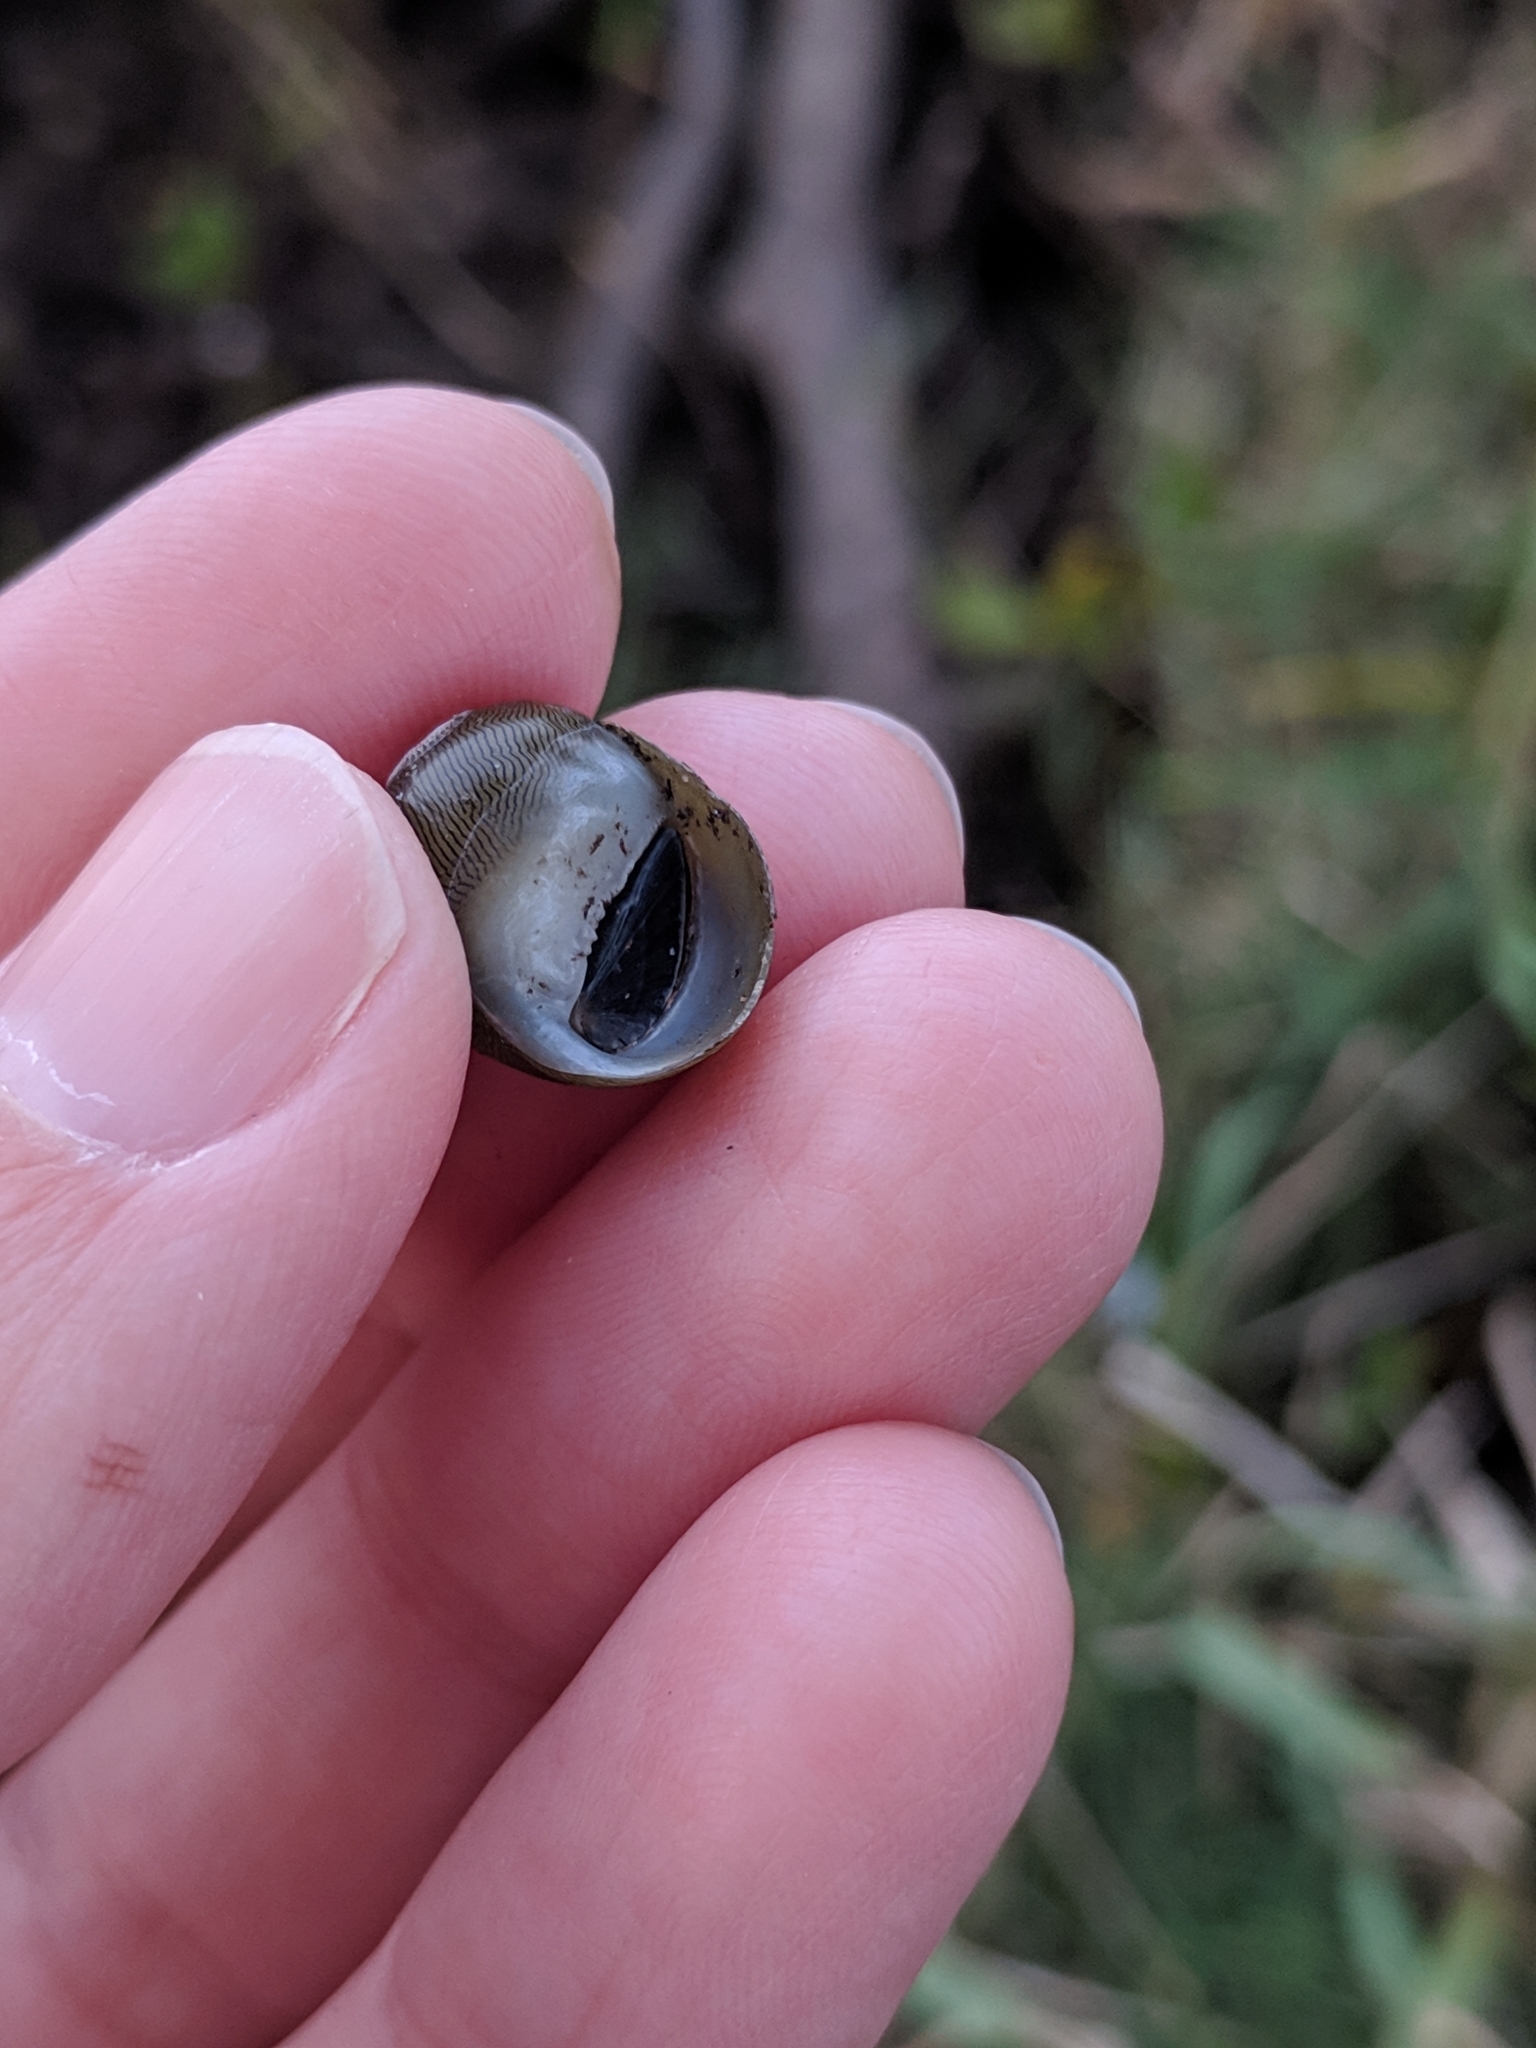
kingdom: Animalia
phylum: Mollusca
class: Gastropoda
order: Cycloneritida
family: Neritidae
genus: Vitta
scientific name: Vitta usnea
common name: Olive nerite
